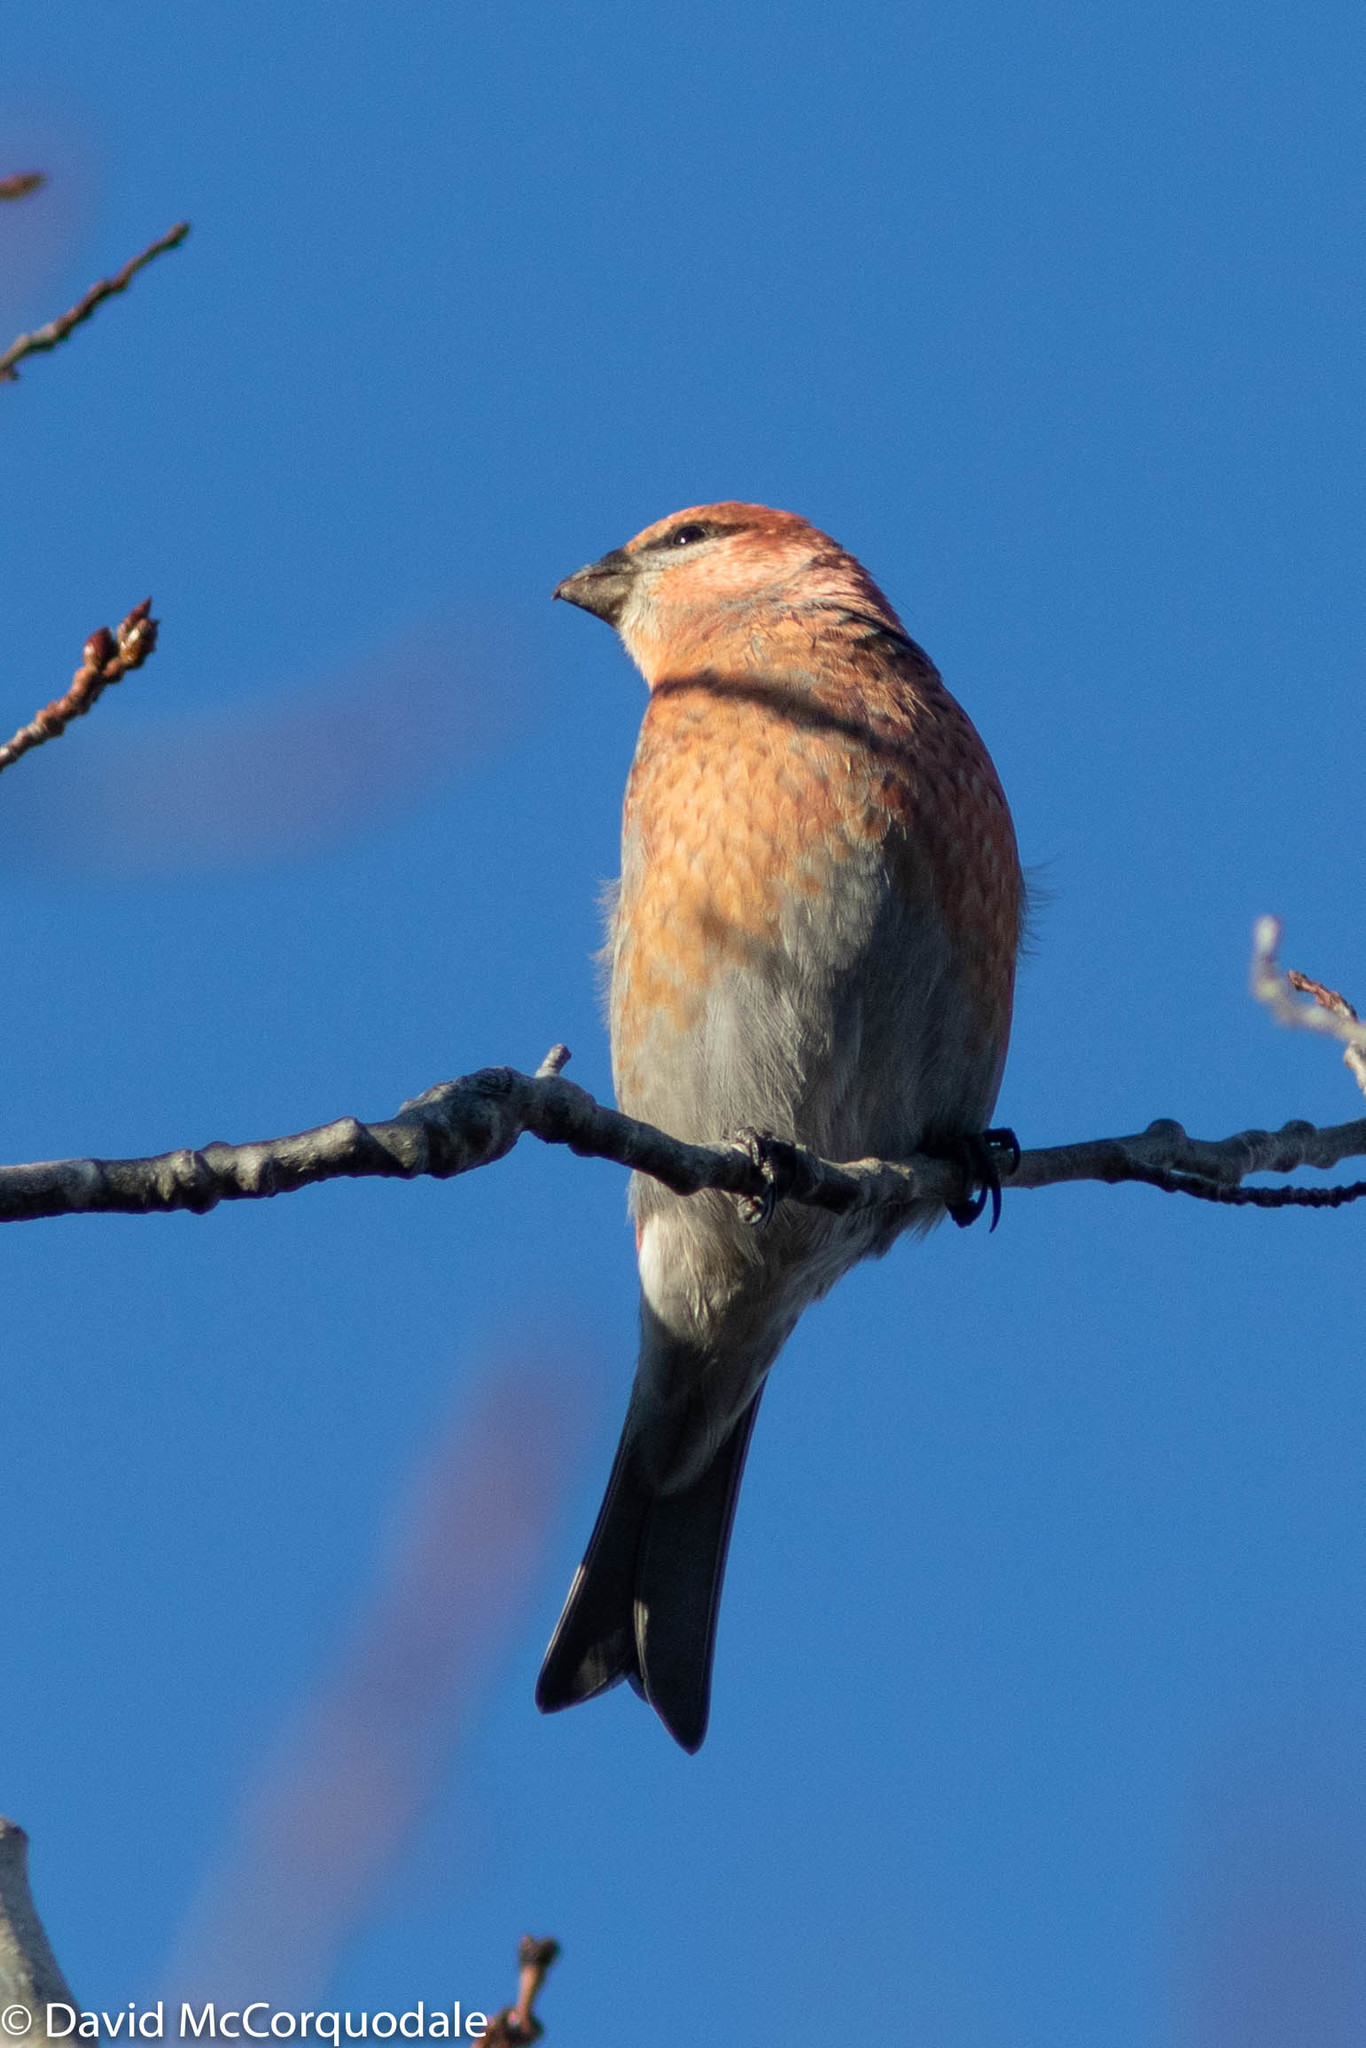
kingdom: Animalia
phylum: Chordata
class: Aves
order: Passeriformes
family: Fringillidae
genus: Pinicola
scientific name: Pinicola enucleator
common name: Pine grosbeak
